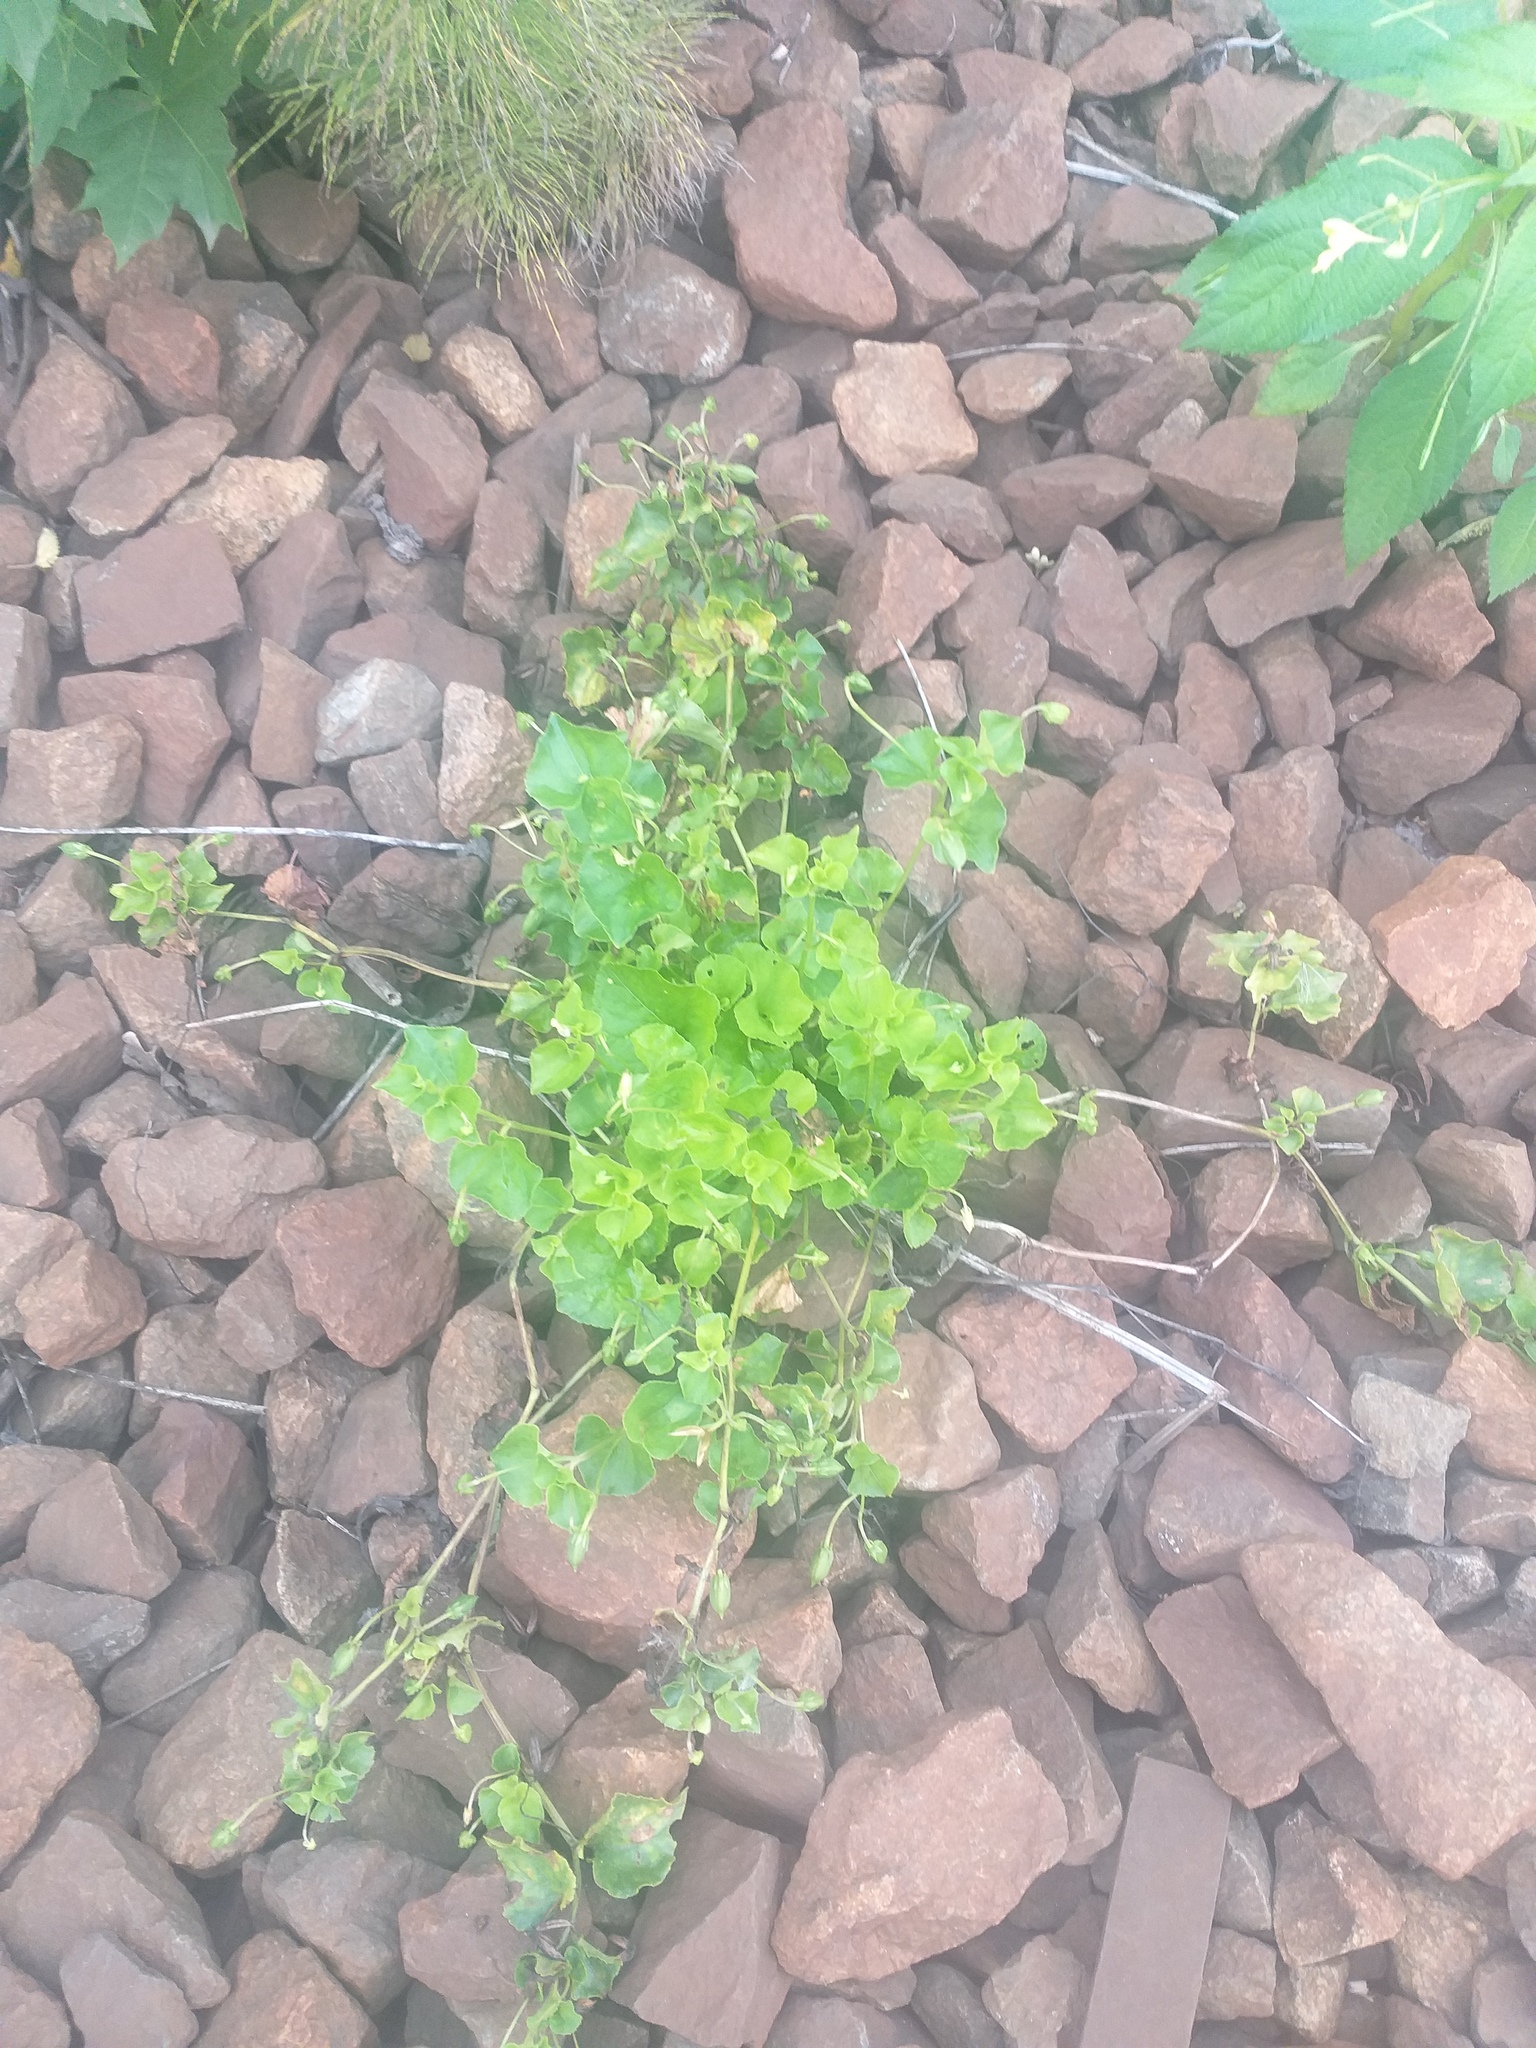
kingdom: Plantae
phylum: Tracheophyta
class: Magnoliopsida
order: Malpighiales
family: Violaceae
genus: Viola
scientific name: Viola riviniana
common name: Common dog-violet
